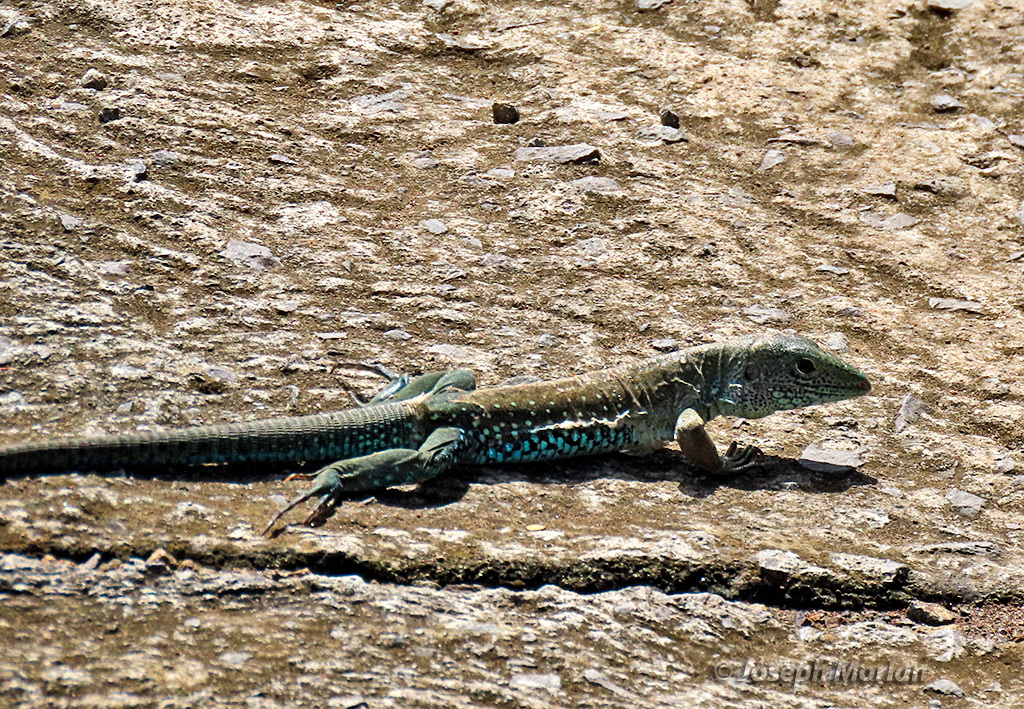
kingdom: Animalia
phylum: Chordata
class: Squamata
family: Teiidae
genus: Ameiva
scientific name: Ameiva tobagana
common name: Antillean ameiva
